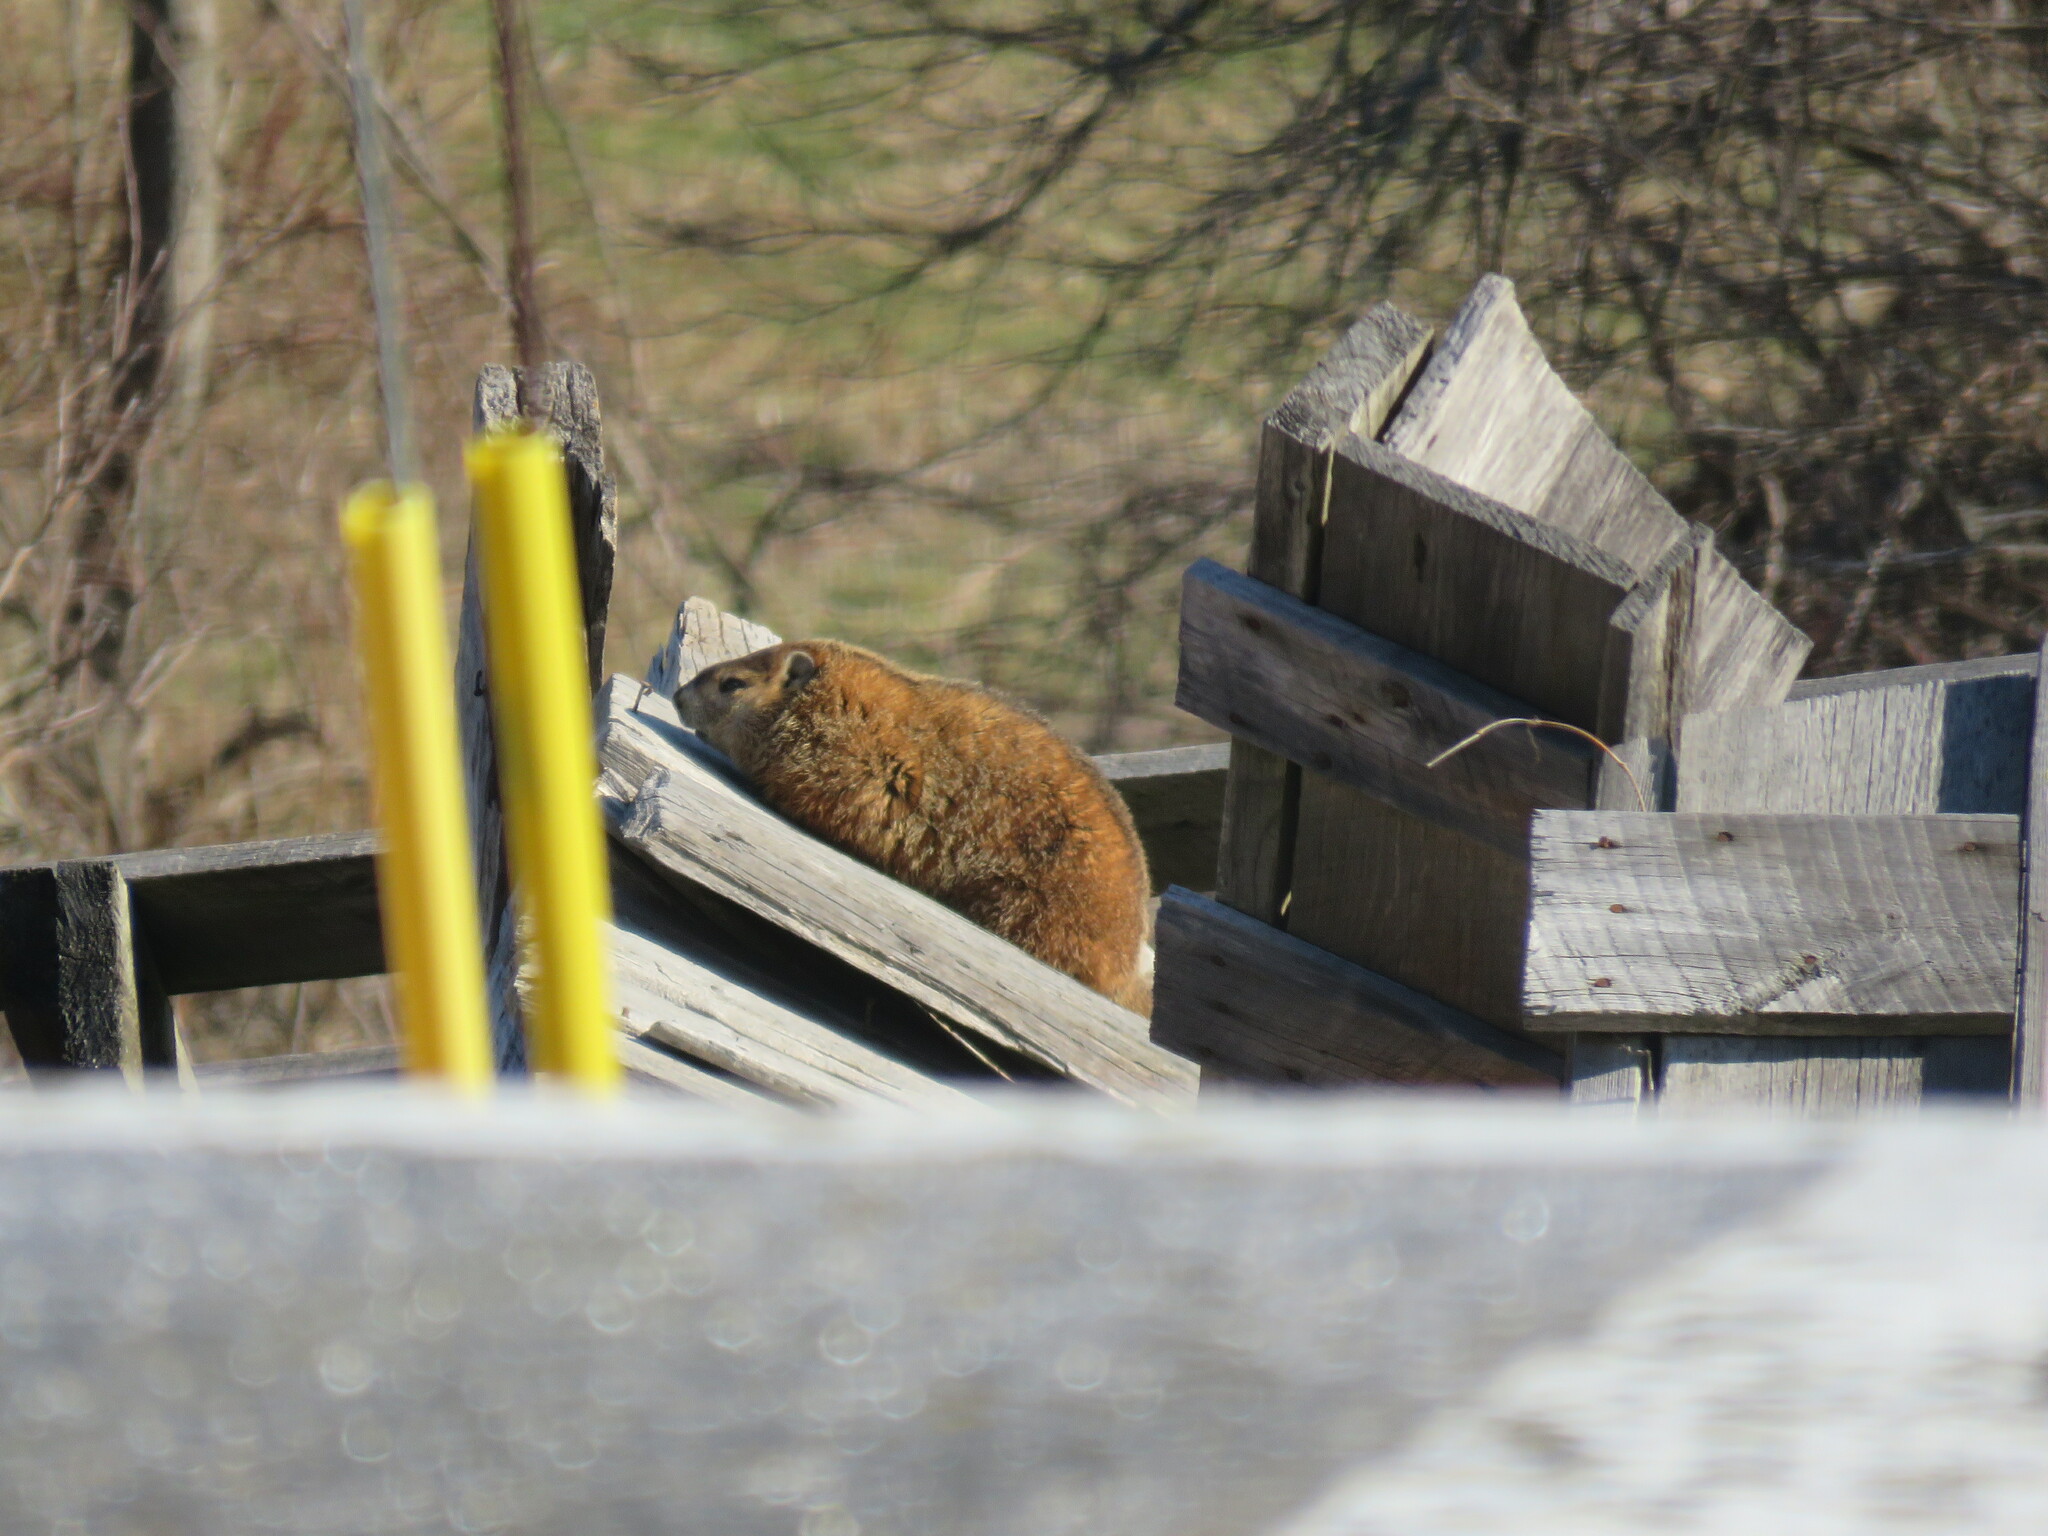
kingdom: Animalia
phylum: Chordata
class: Mammalia
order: Rodentia
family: Sciuridae
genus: Marmota
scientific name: Marmota monax
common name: Groundhog
